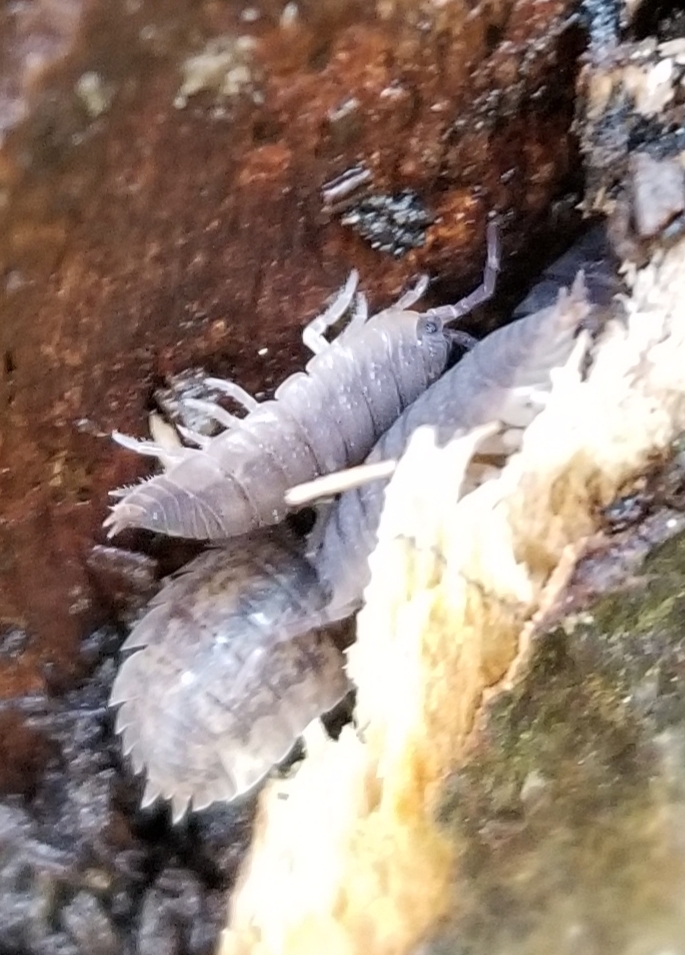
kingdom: Animalia
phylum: Arthropoda
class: Malacostraca
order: Isopoda
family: Porcellionidae
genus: Porcellio
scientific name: Porcellio scaber
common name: Common rough woodlouse
